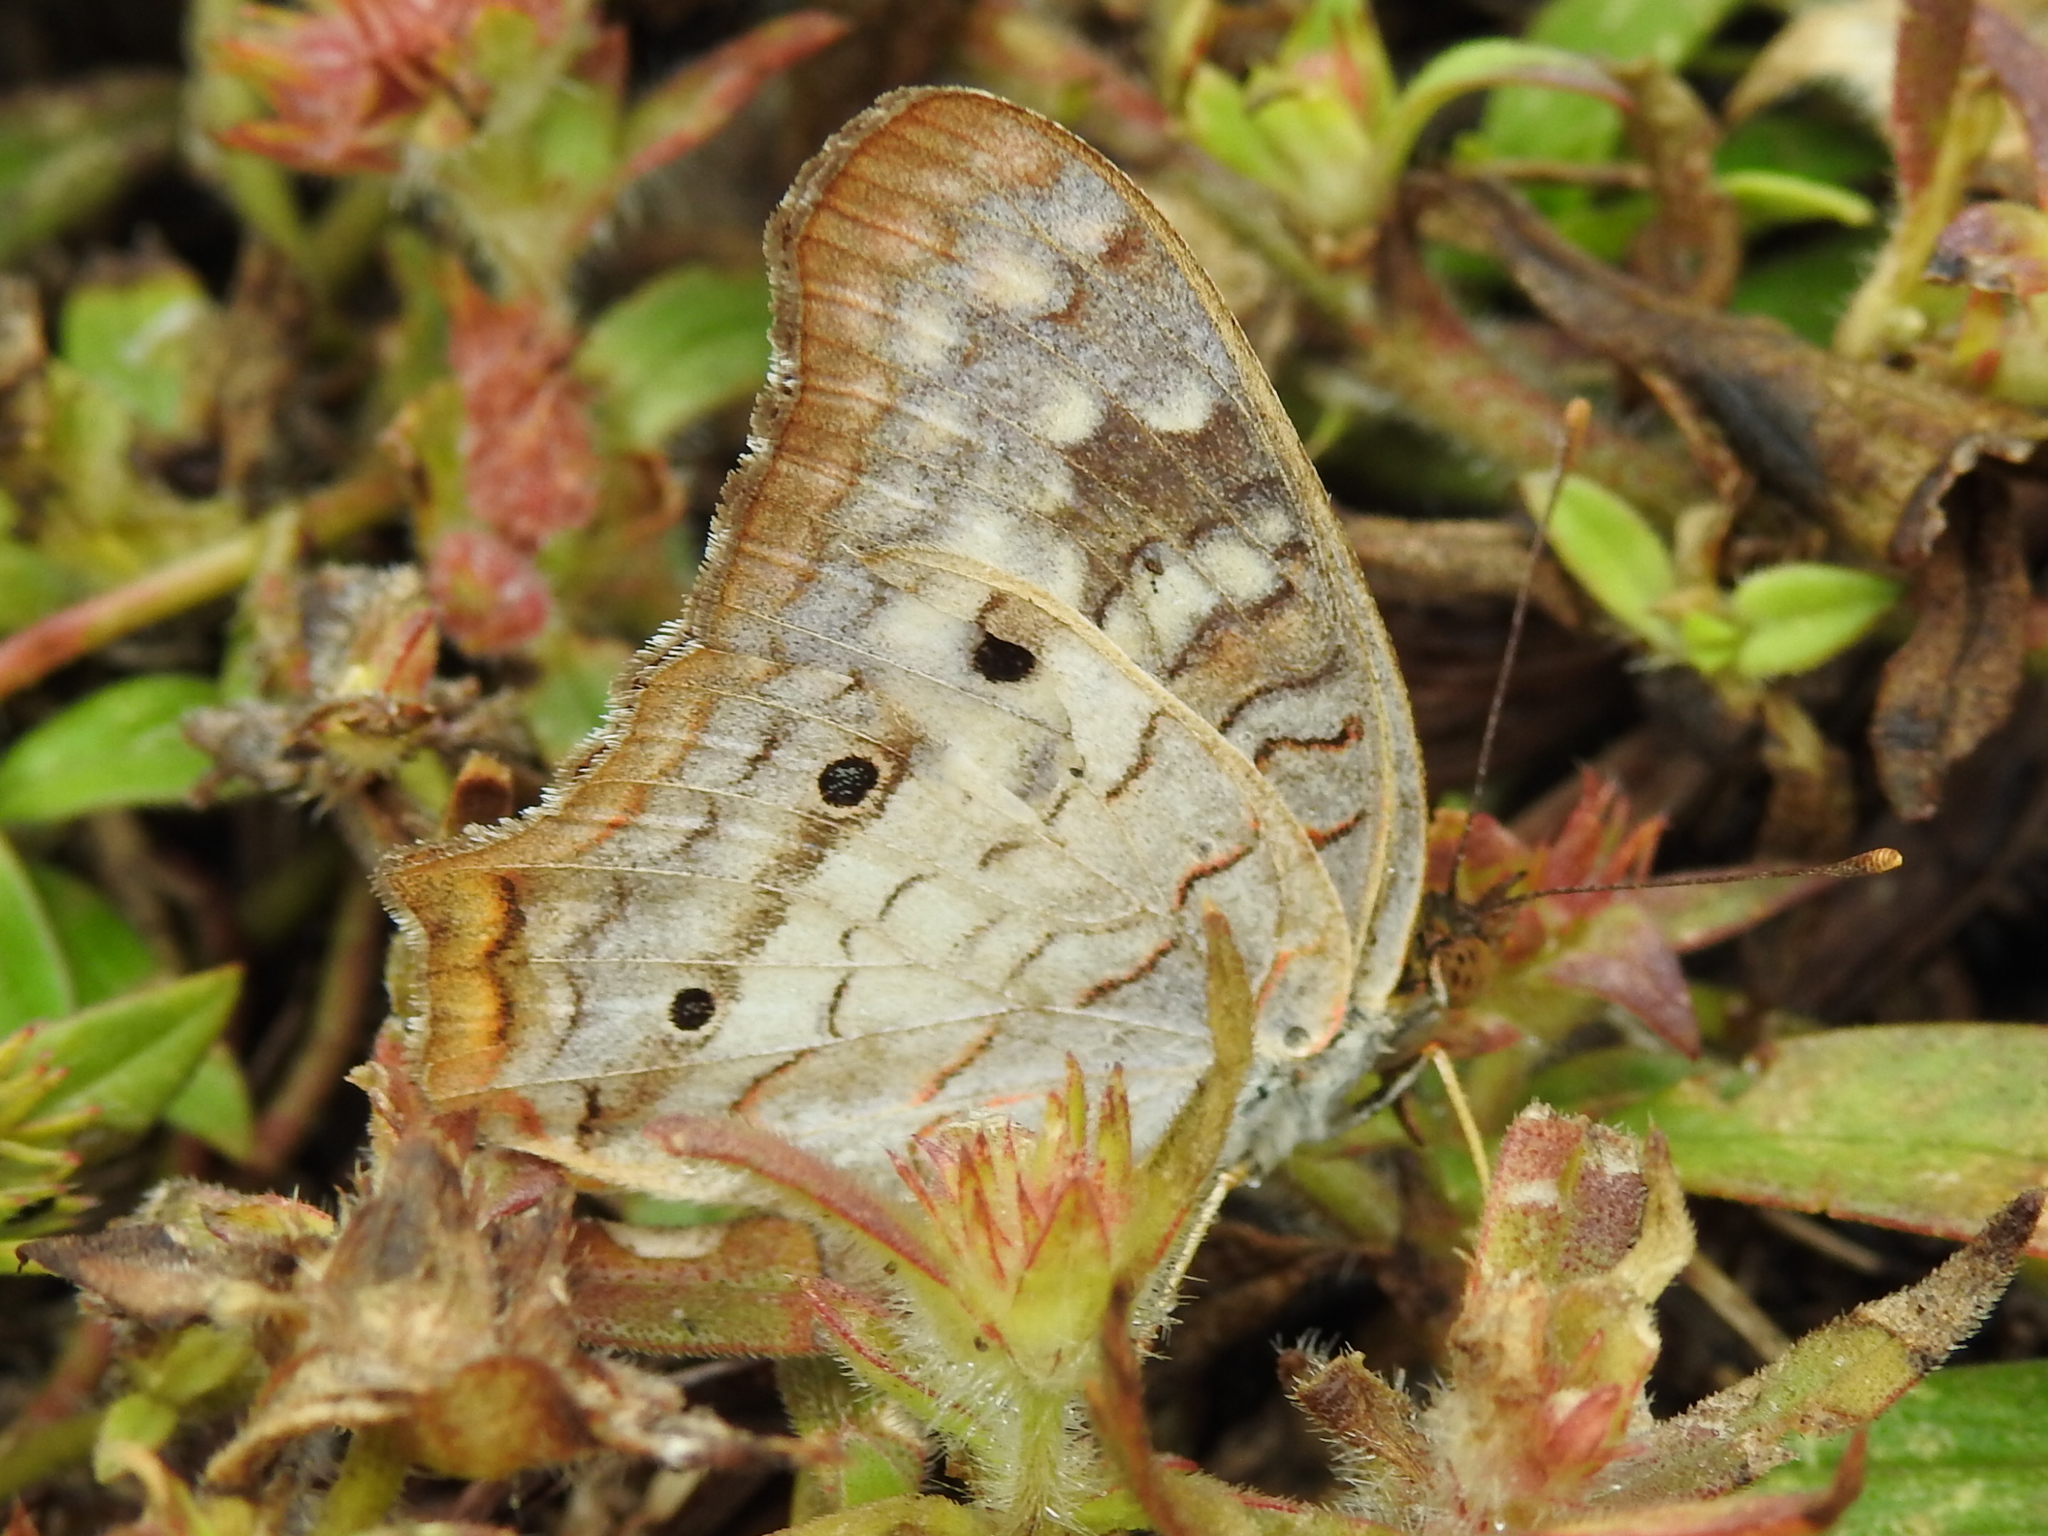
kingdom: Animalia
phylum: Arthropoda
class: Insecta
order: Lepidoptera
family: Nymphalidae
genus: Anartia
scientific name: Anartia jatrophae
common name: White peacock
